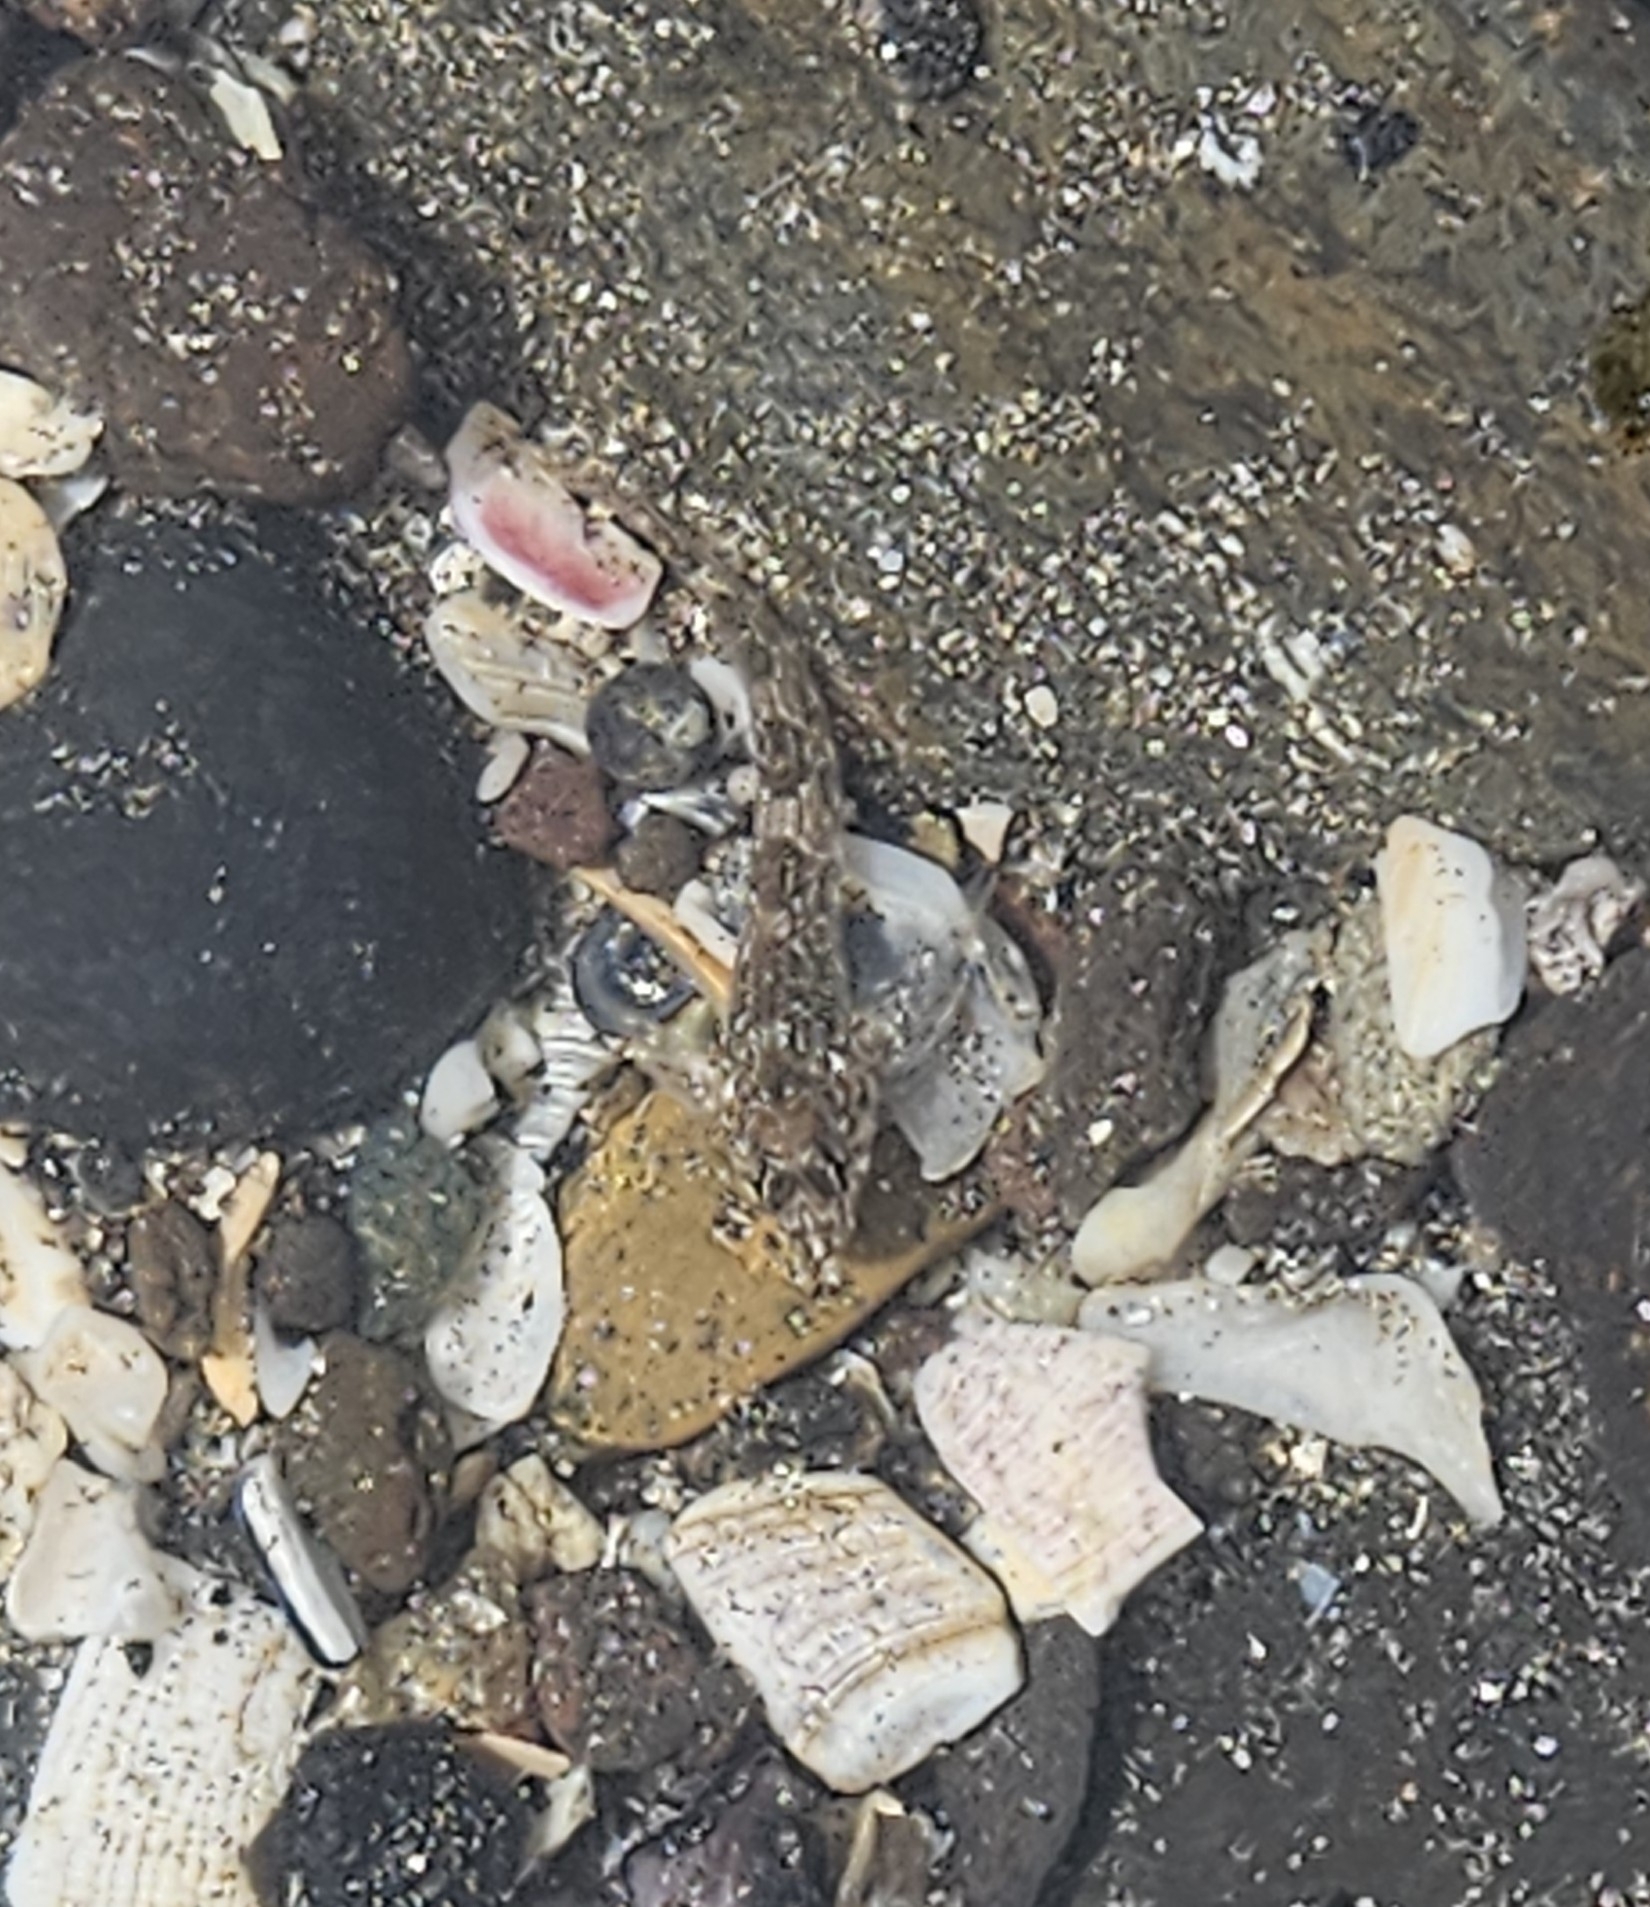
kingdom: Animalia
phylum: Chordata
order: Perciformes
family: Tripterygiidae
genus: Bellapiscis
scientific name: Bellapiscis medius
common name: Twister
